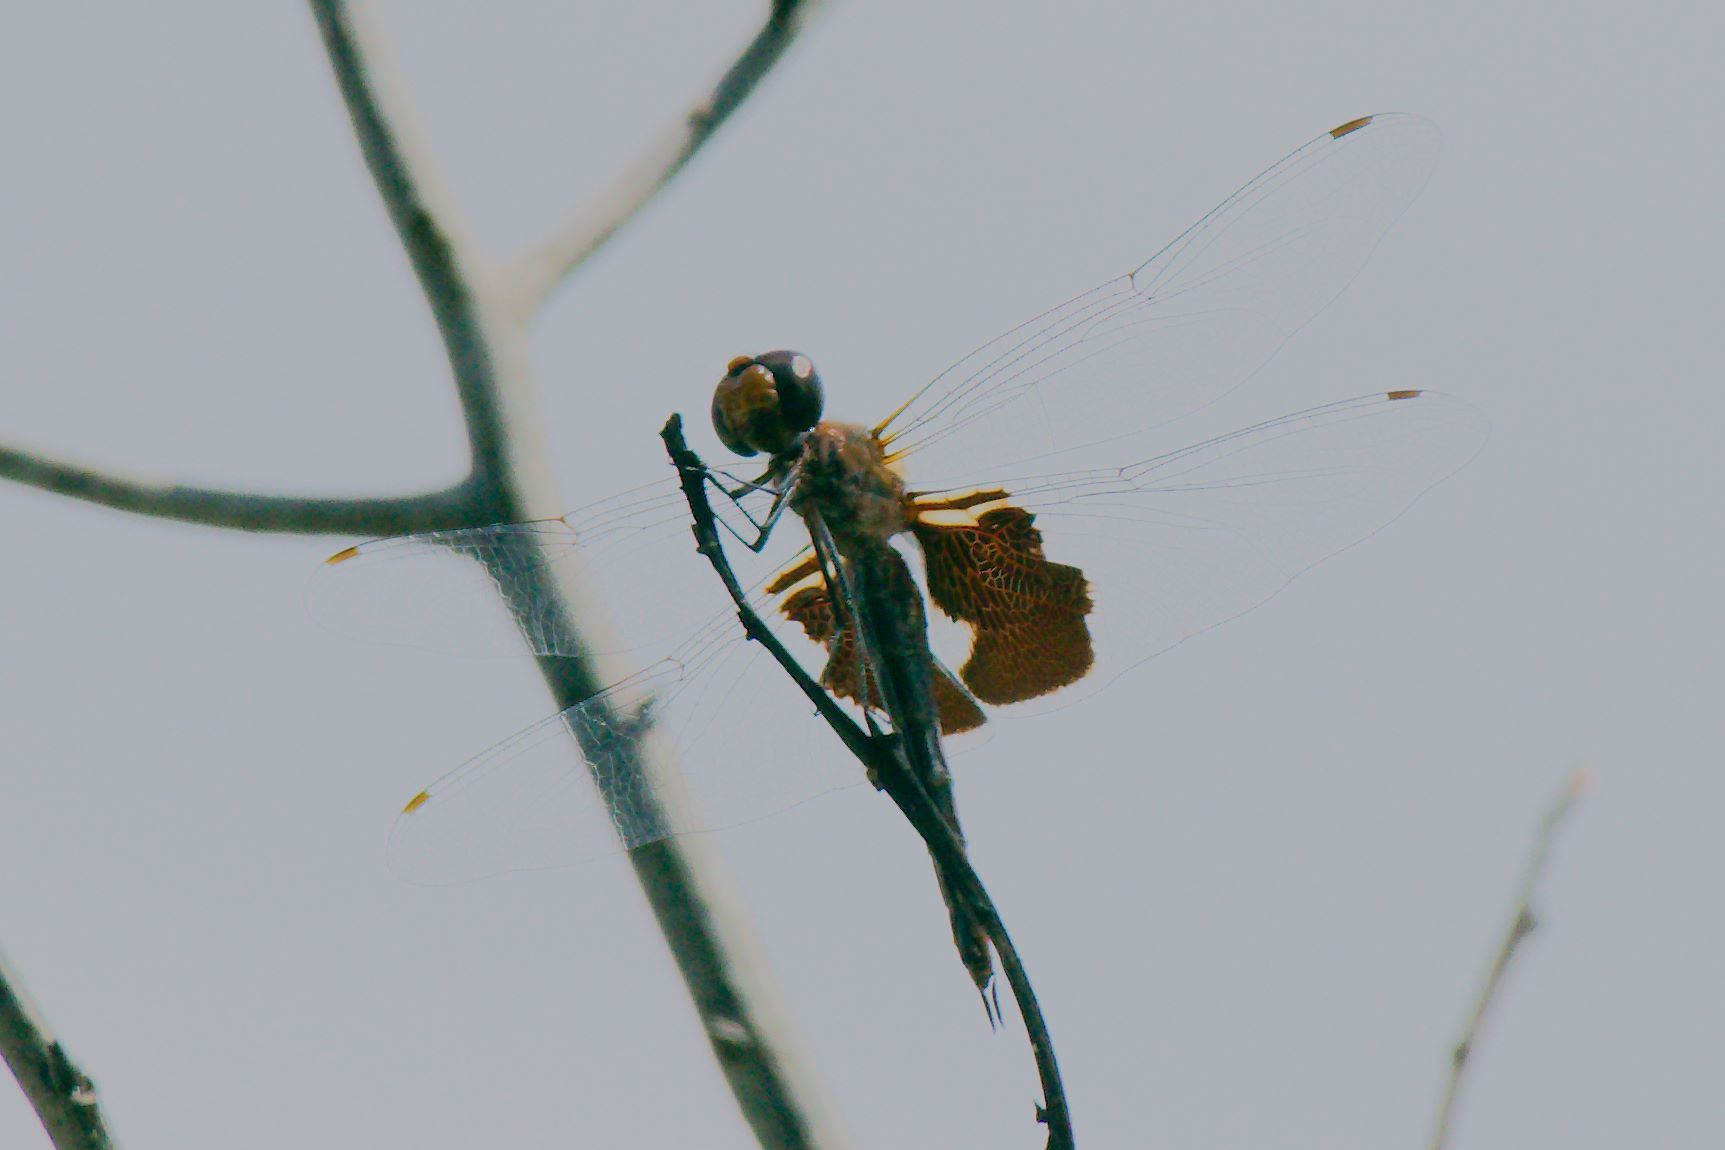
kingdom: Animalia
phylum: Arthropoda
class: Insecta
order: Odonata
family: Libellulidae
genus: Tramea
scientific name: Tramea onusta
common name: Red saddlebags
